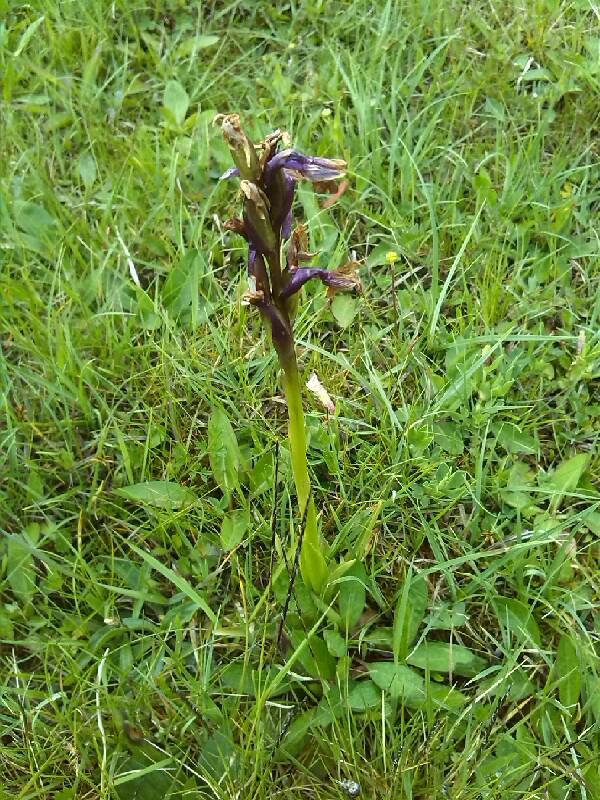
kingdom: Plantae
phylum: Tracheophyta
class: Liliopsida
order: Asparagales
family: Orchidaceae
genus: Anacamptis
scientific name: Anacamptis morio
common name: Green-winged orchid
